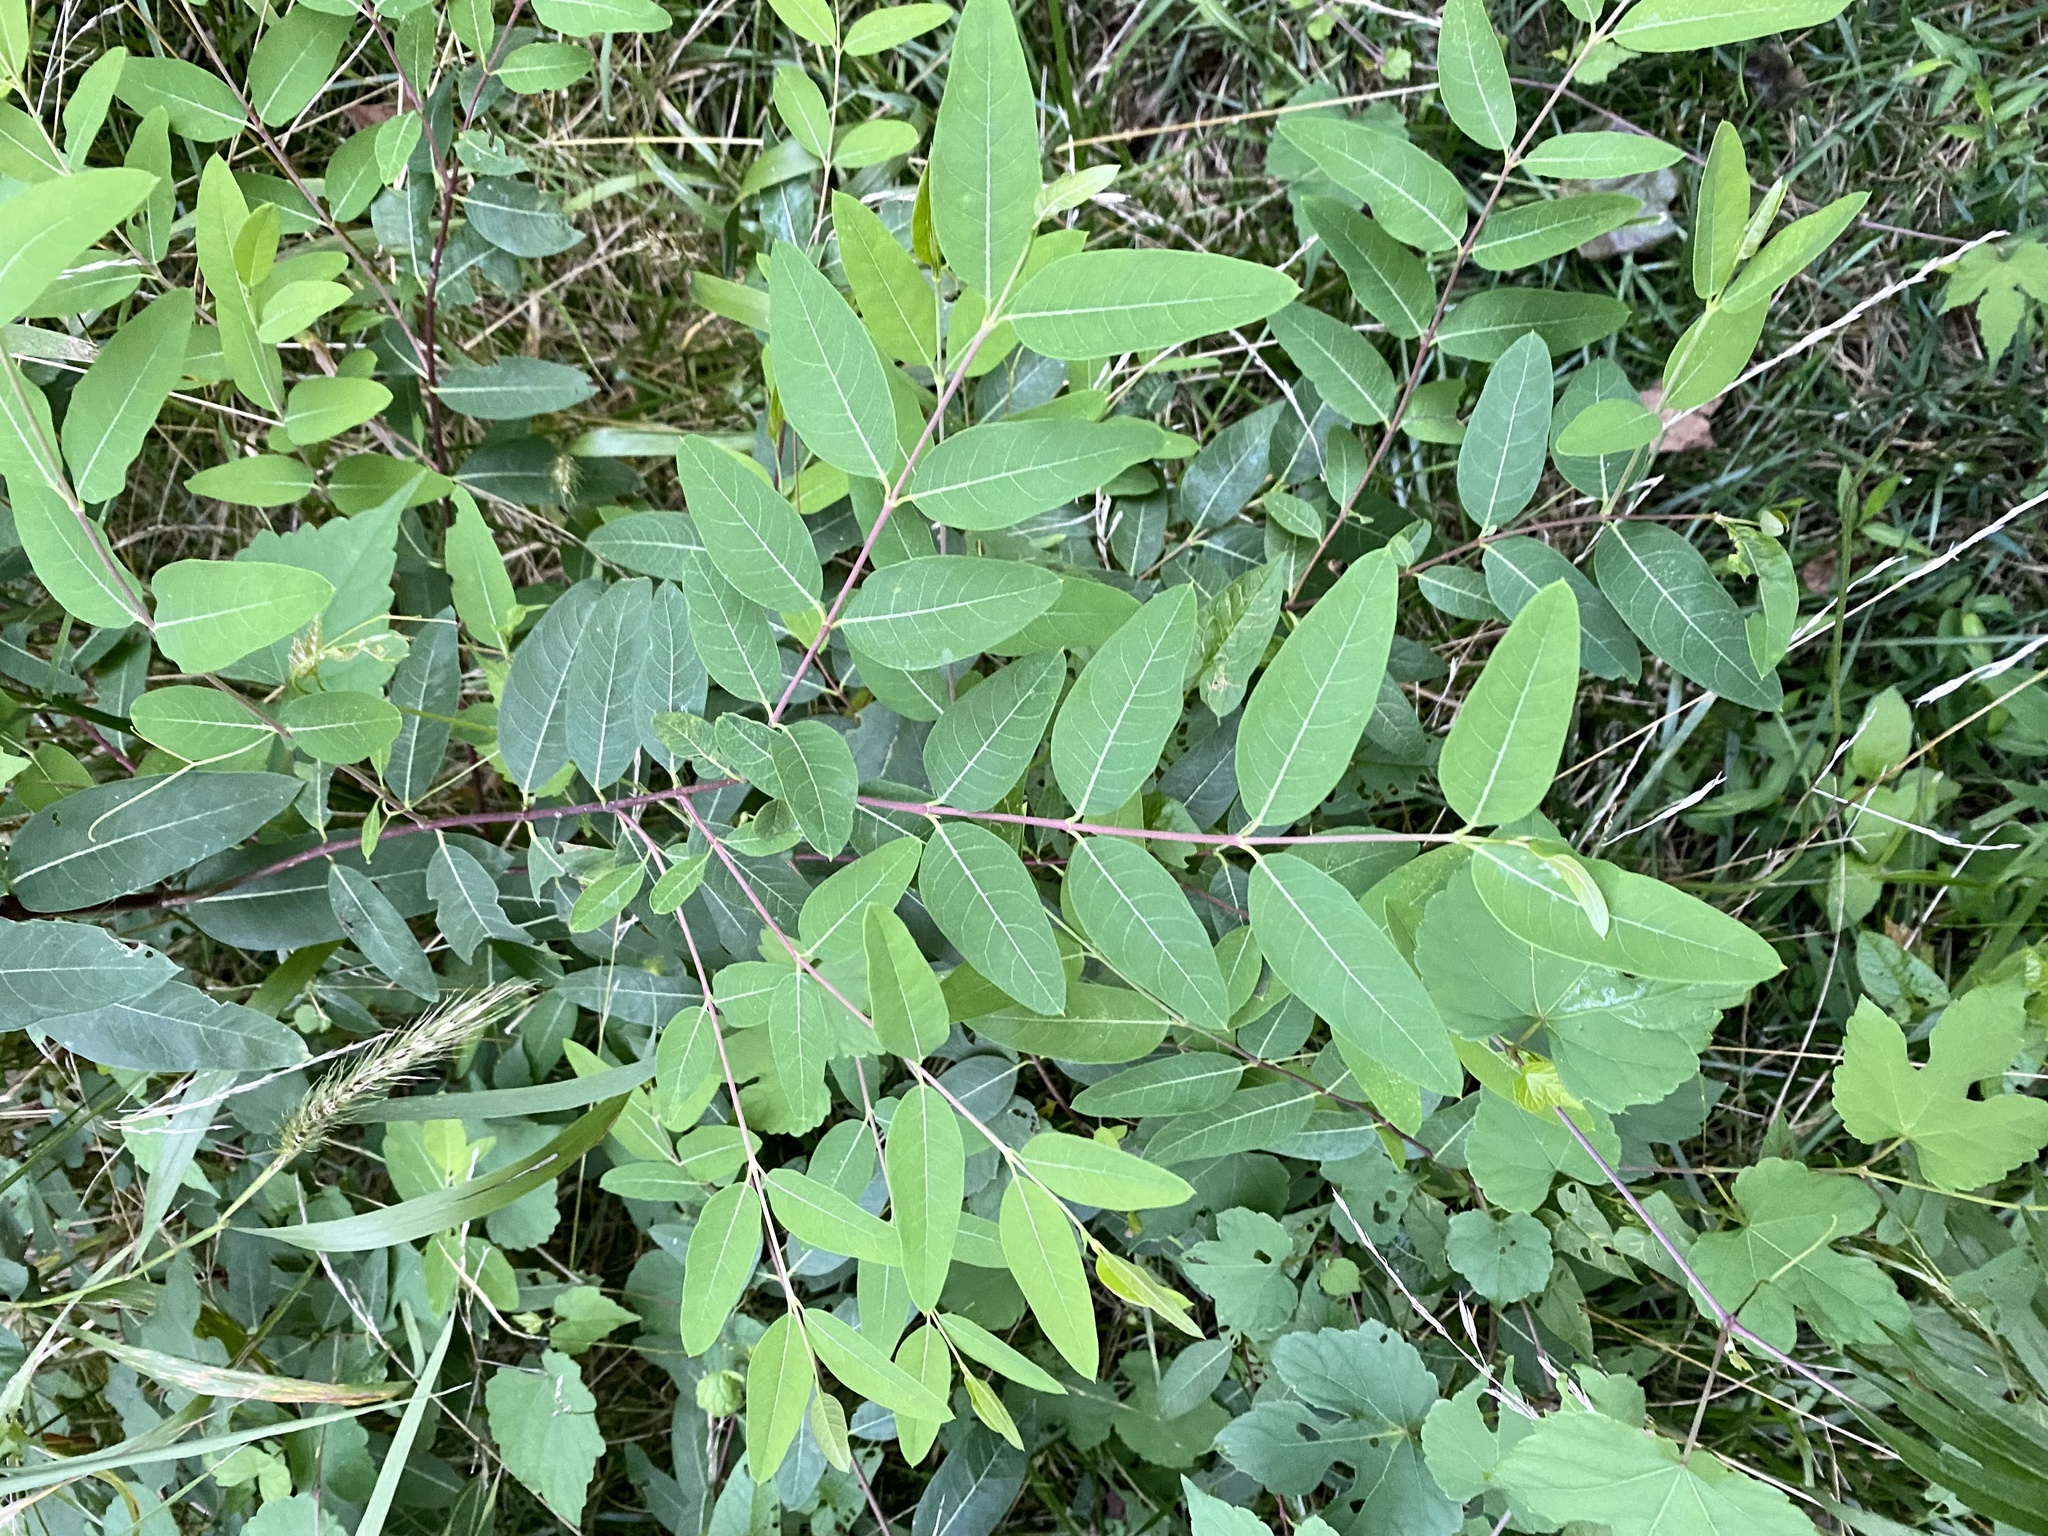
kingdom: Plantae
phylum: Tracheophyta
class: Magnoliopsida
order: Gentianales
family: Apocynaceae
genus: Apocynum
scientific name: Apocynum cannabinum
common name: Hemp dogbane
